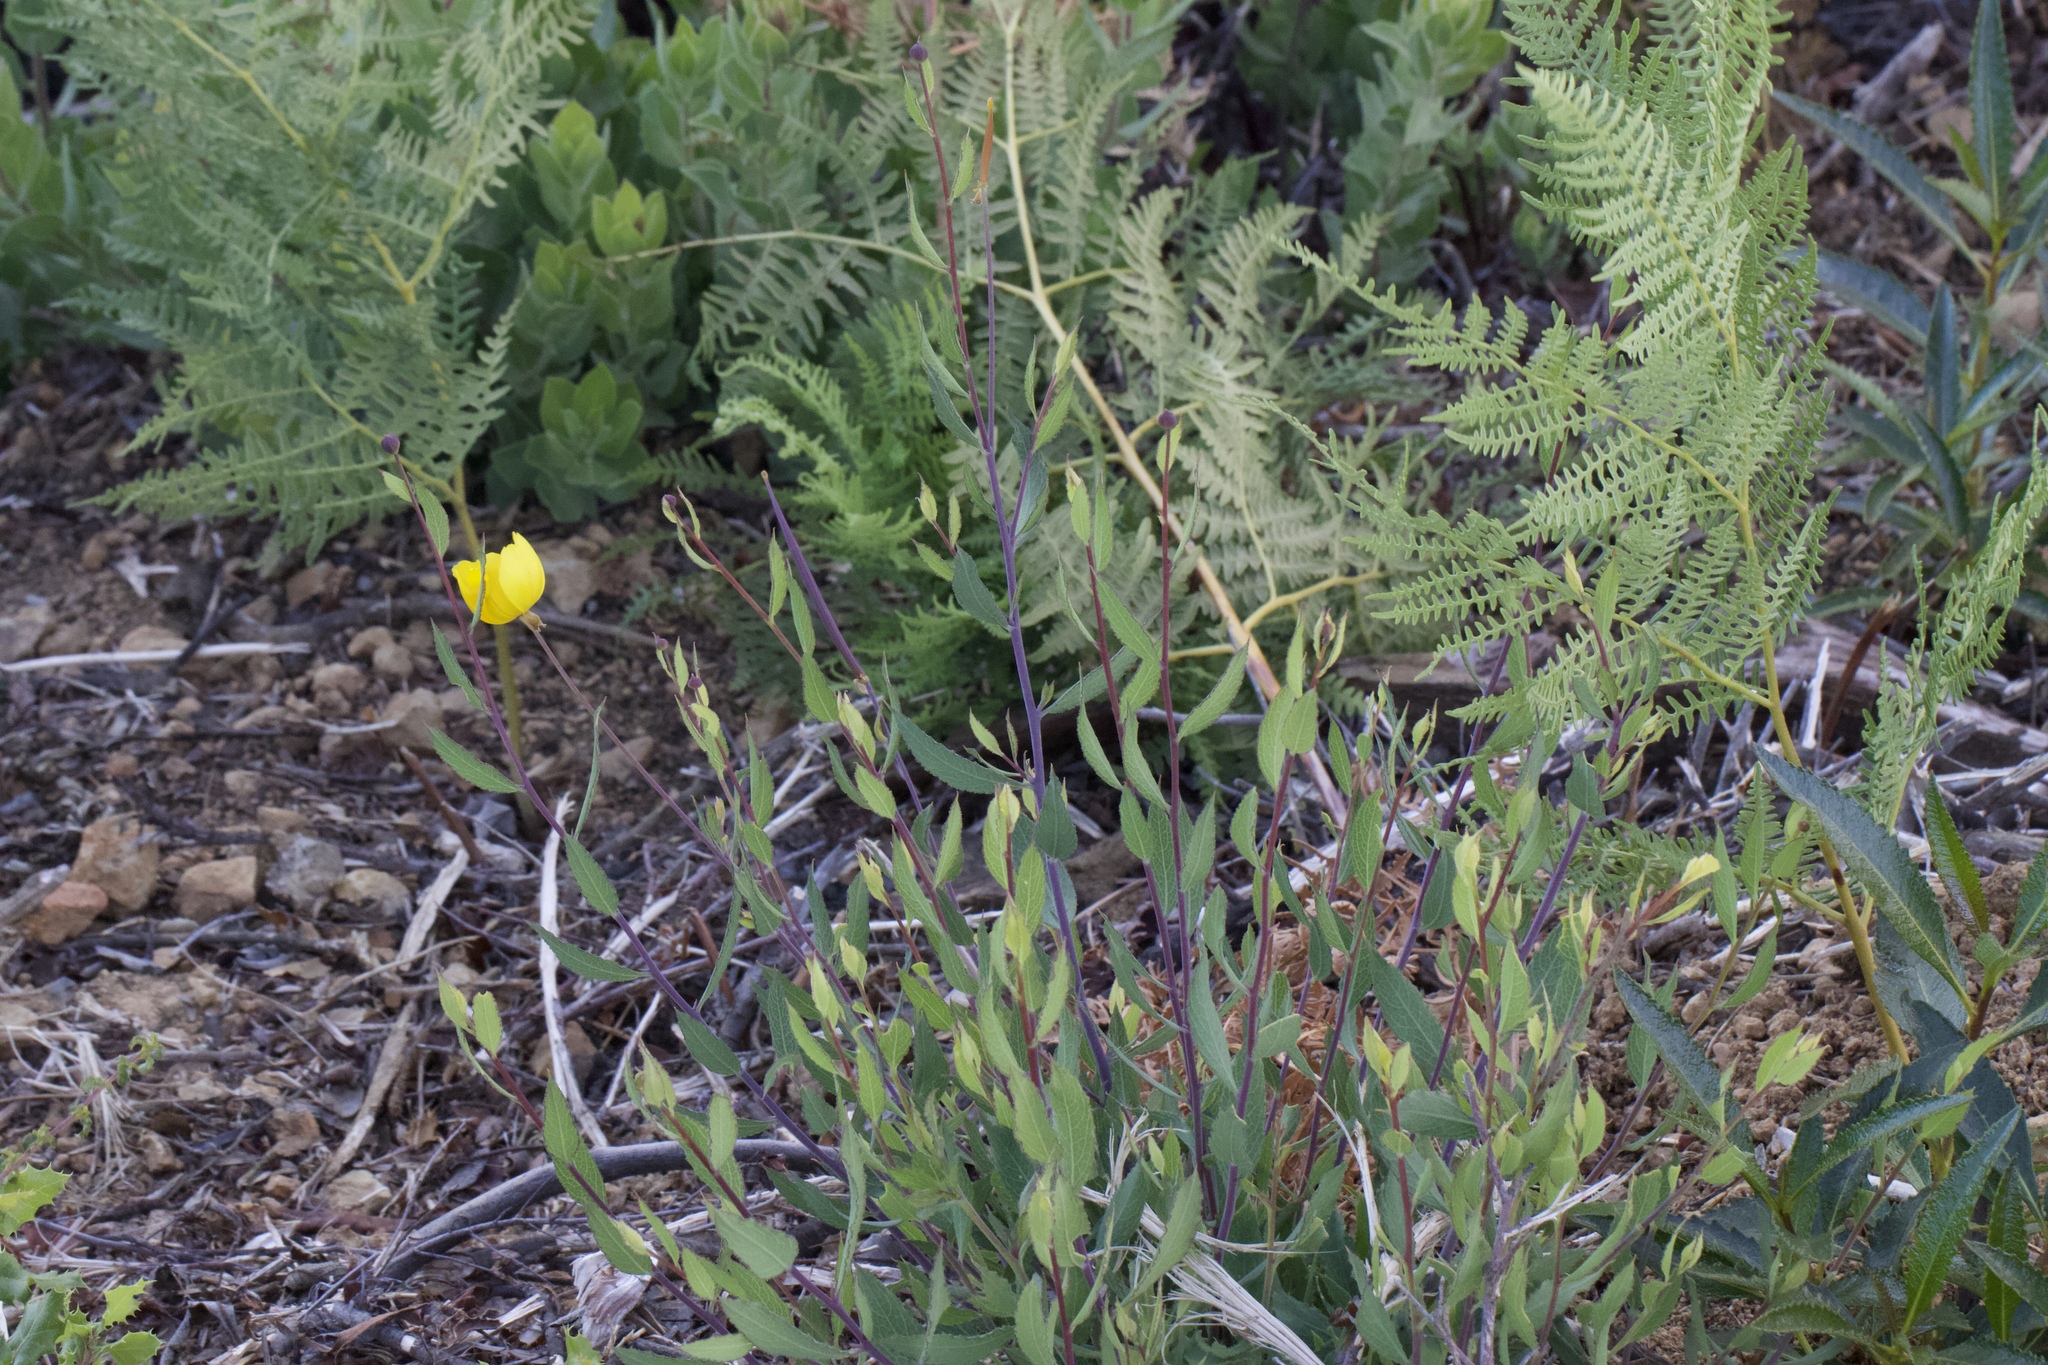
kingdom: Plantae
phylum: Tracheophyta
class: Magnoliopsida
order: Ranunculales
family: Papaveraceae
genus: Dendromecon
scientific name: Dendromecon rigida
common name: Tree poppy
